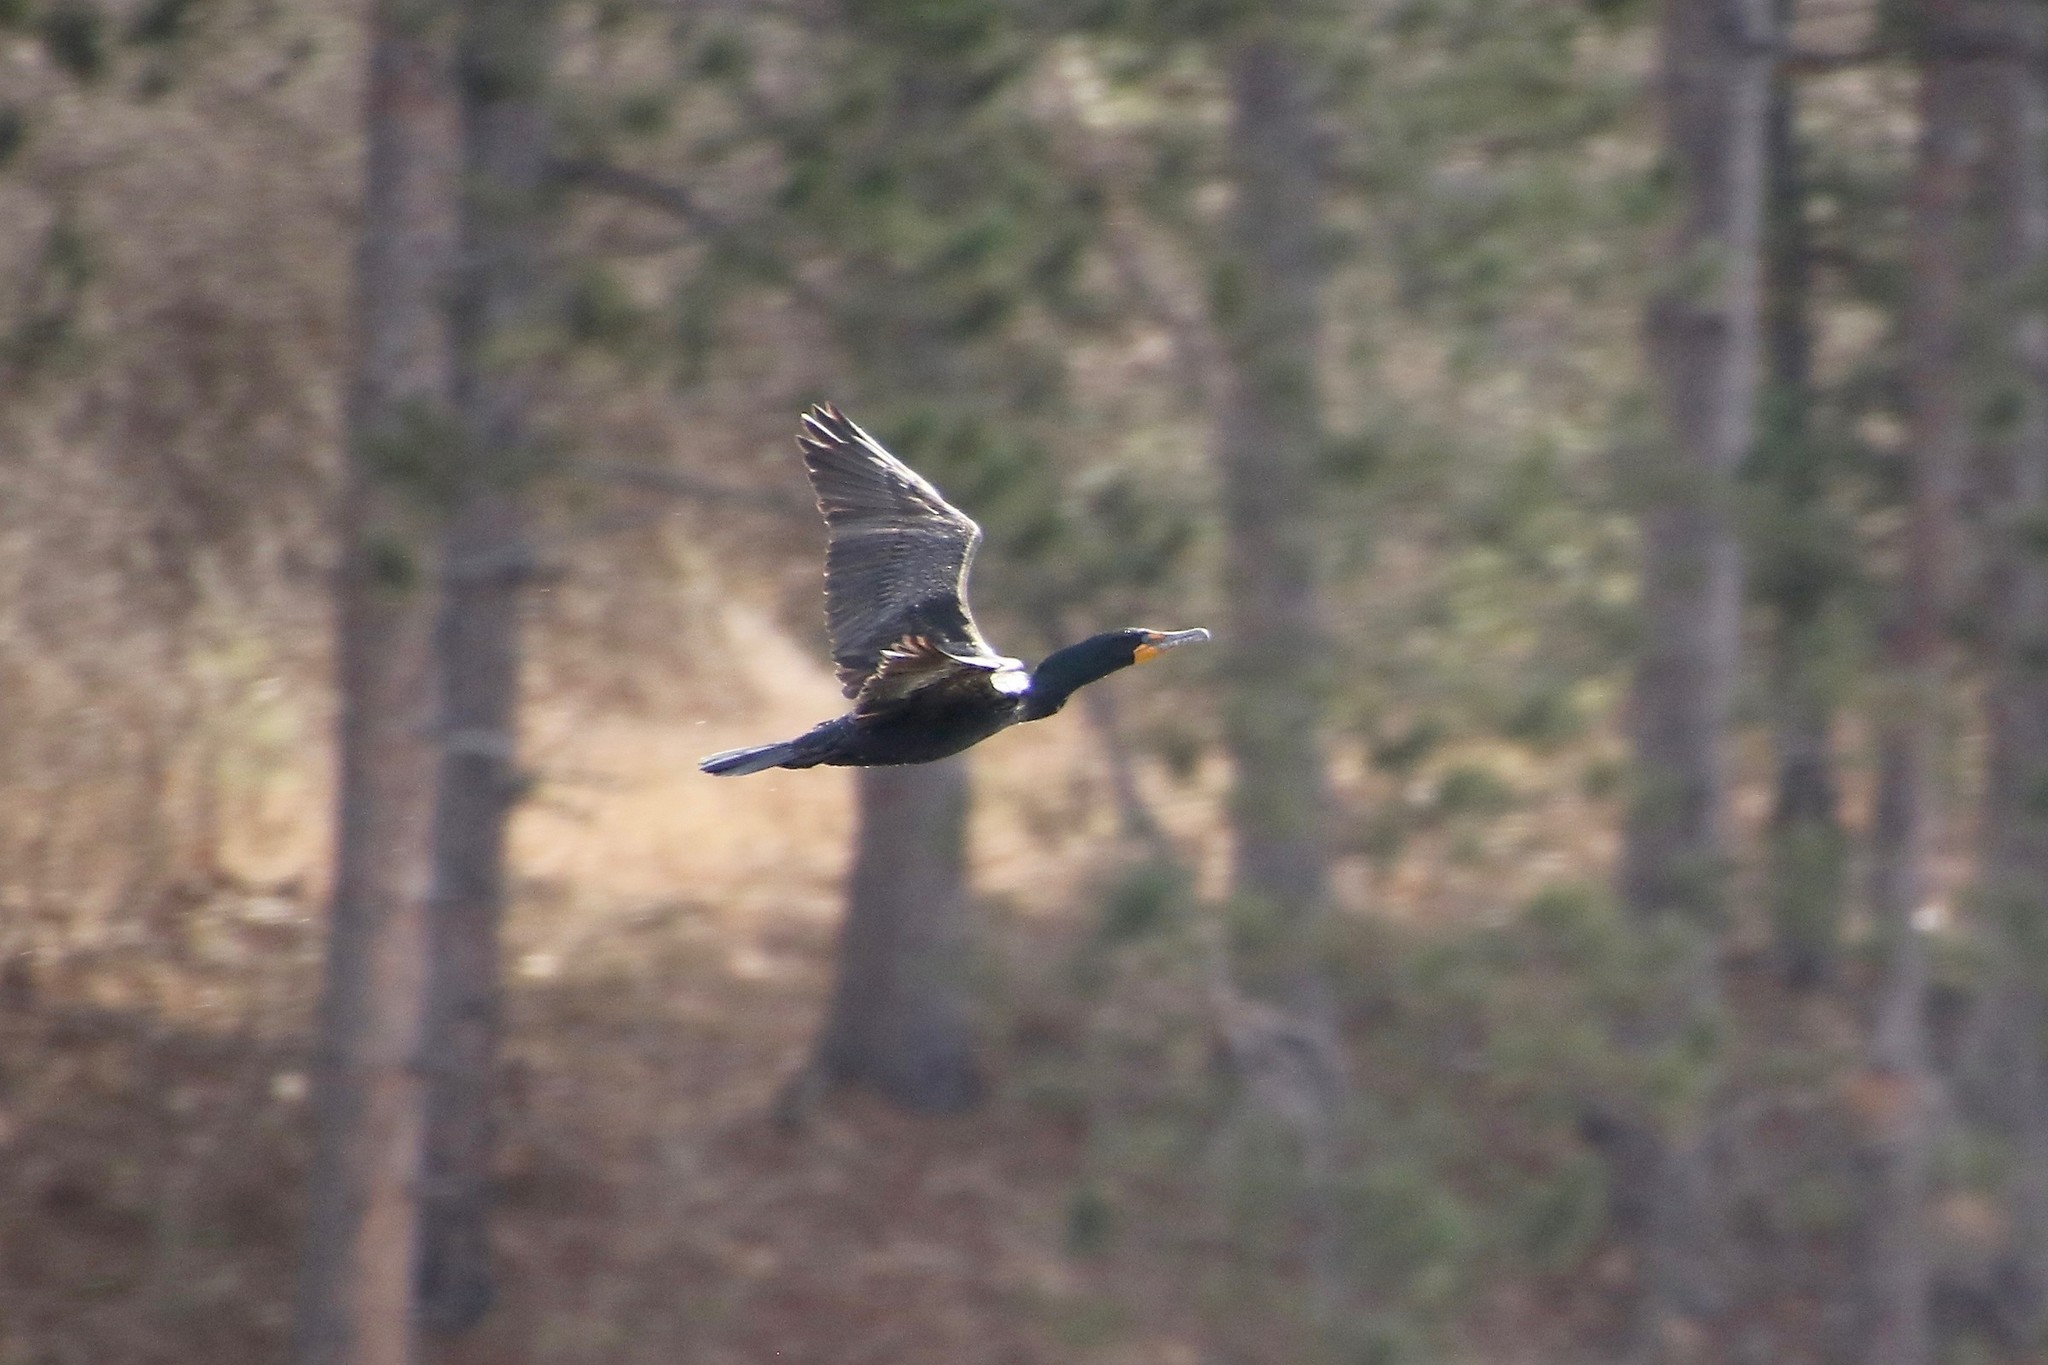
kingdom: Animalia
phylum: Chordata
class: Aves
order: Suliformes
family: Phalacrocoracidae
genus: Phalacrocorax
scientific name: Phalacrocorax auritus
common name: Double-crested cormorant
